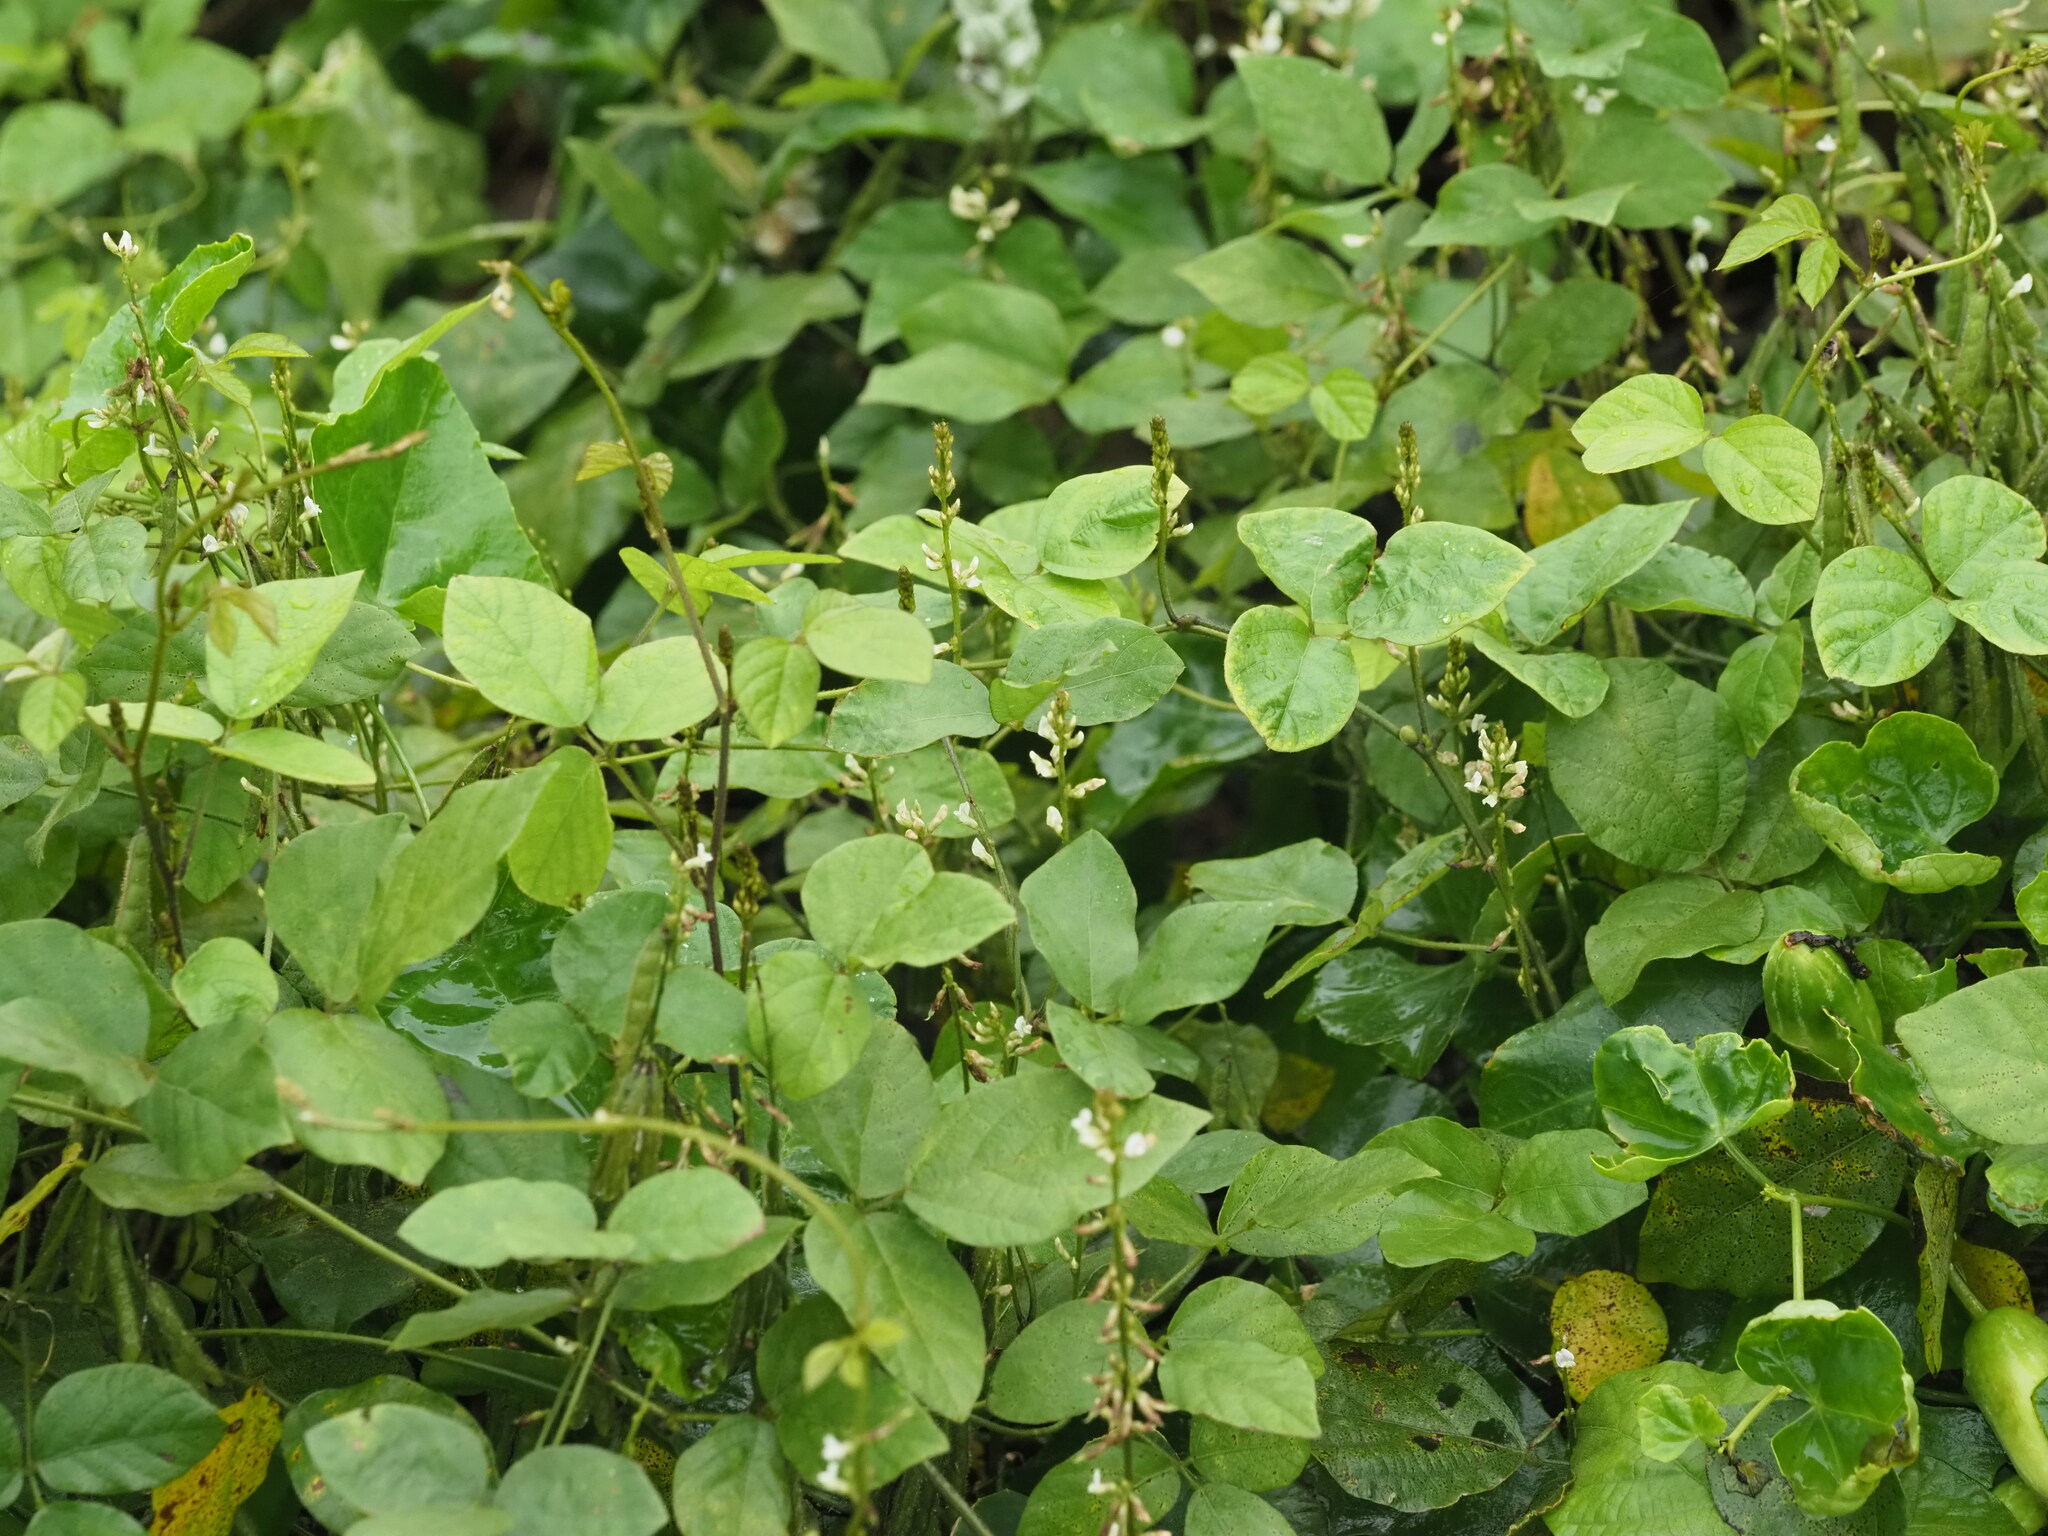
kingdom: Plantae
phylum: Tracheophyta
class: Magnoliopsida
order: Fabales
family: Fabaceae
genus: Neonotonia
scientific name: Neonotonia wightii
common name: Perennial soybean
